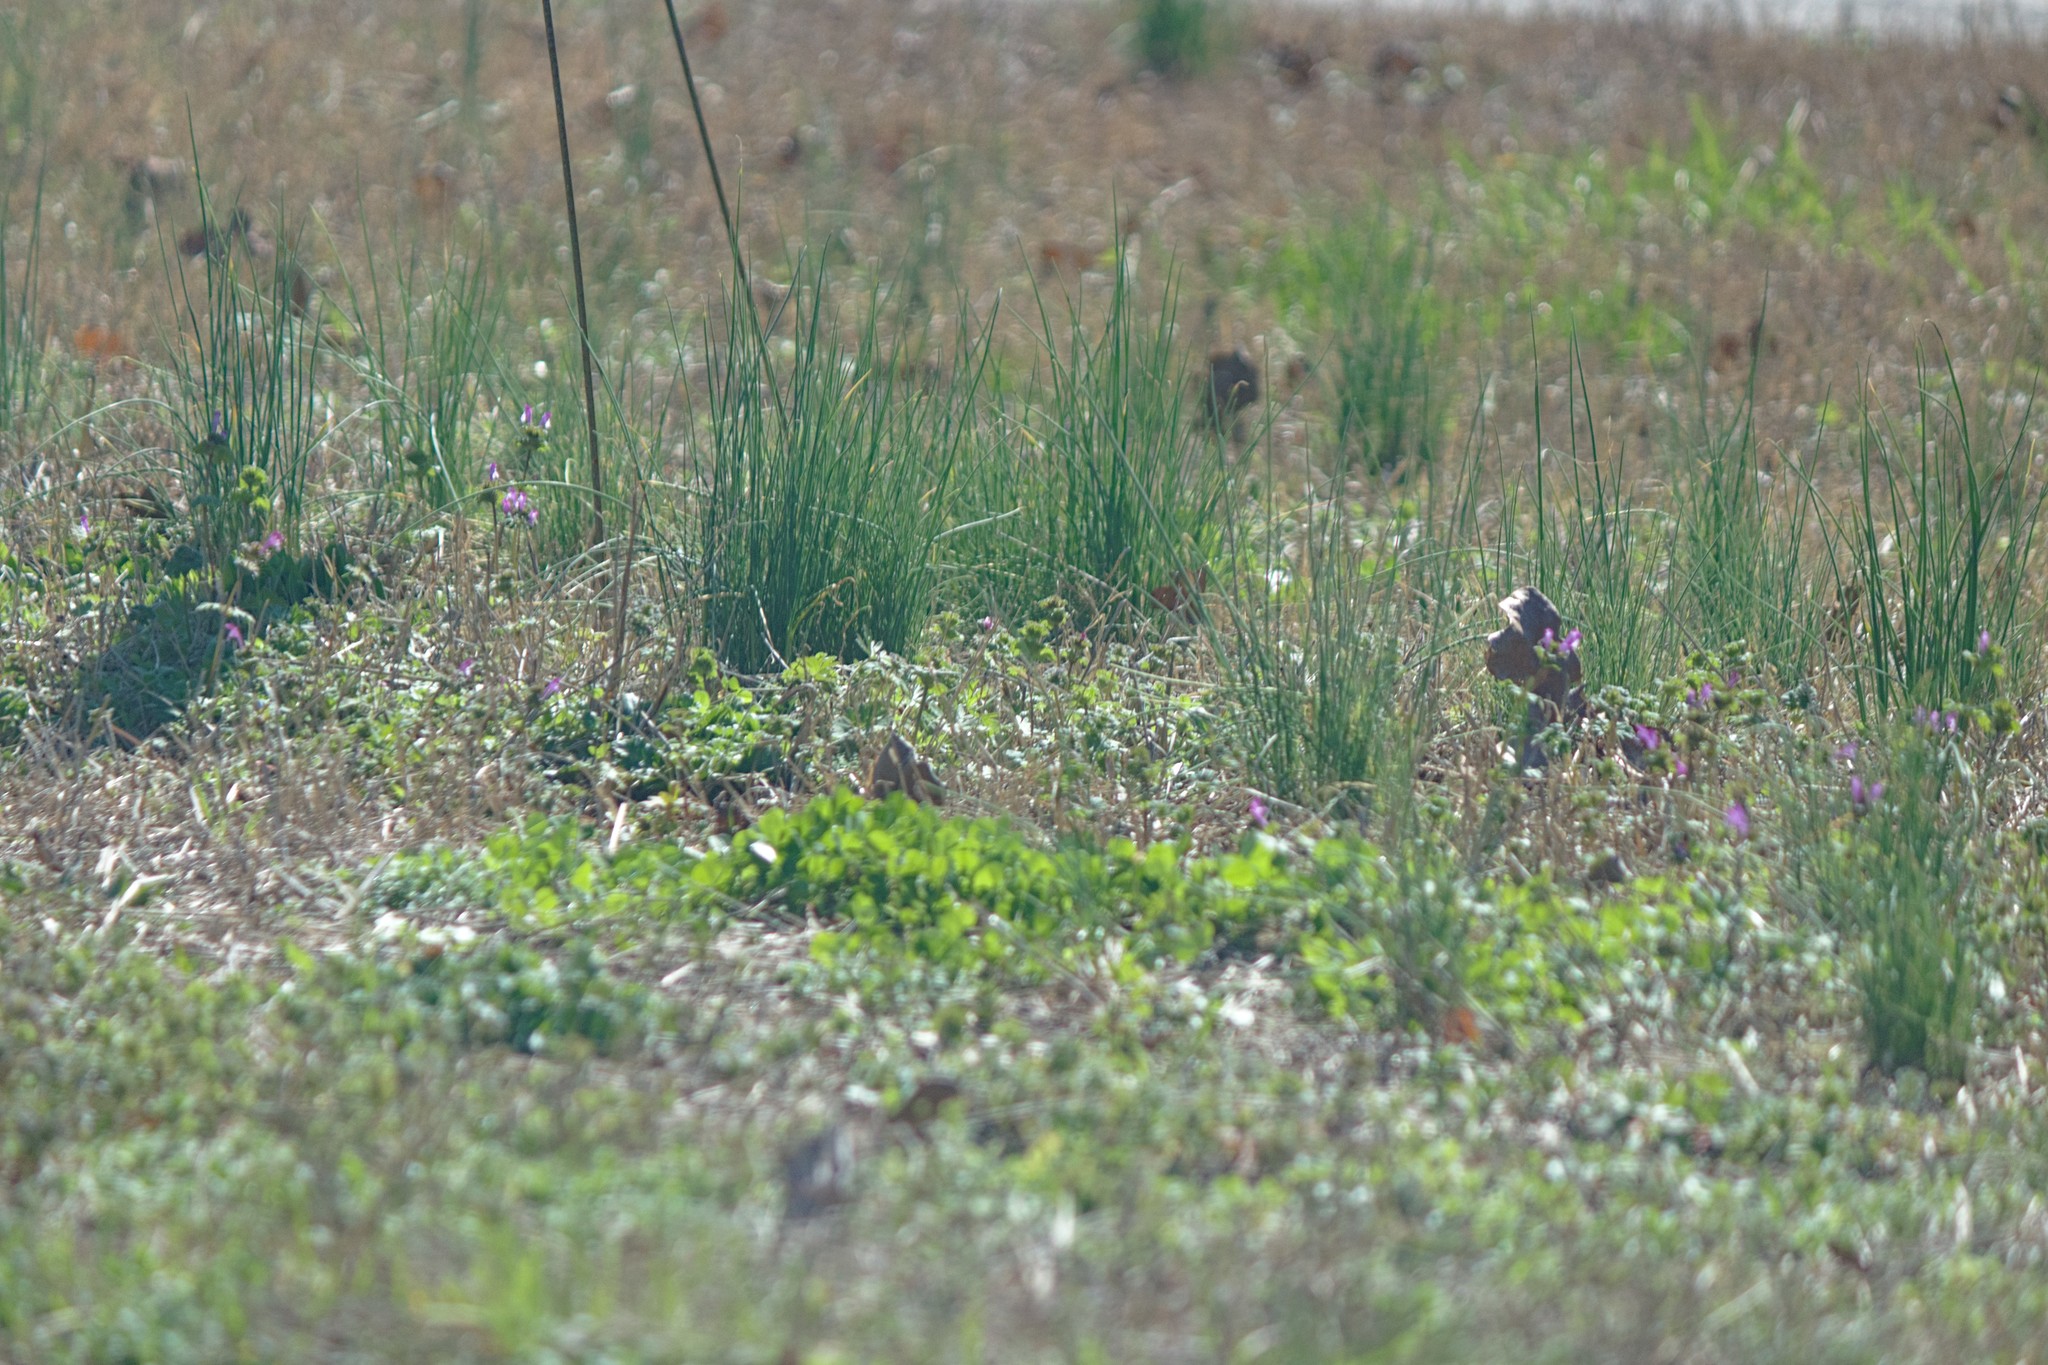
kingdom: Plantae
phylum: Tracheophyta
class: Liliopsida
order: Asparagales
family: Amaryllidaceae
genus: Allium
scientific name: Allium vineale
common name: Crow garlic
